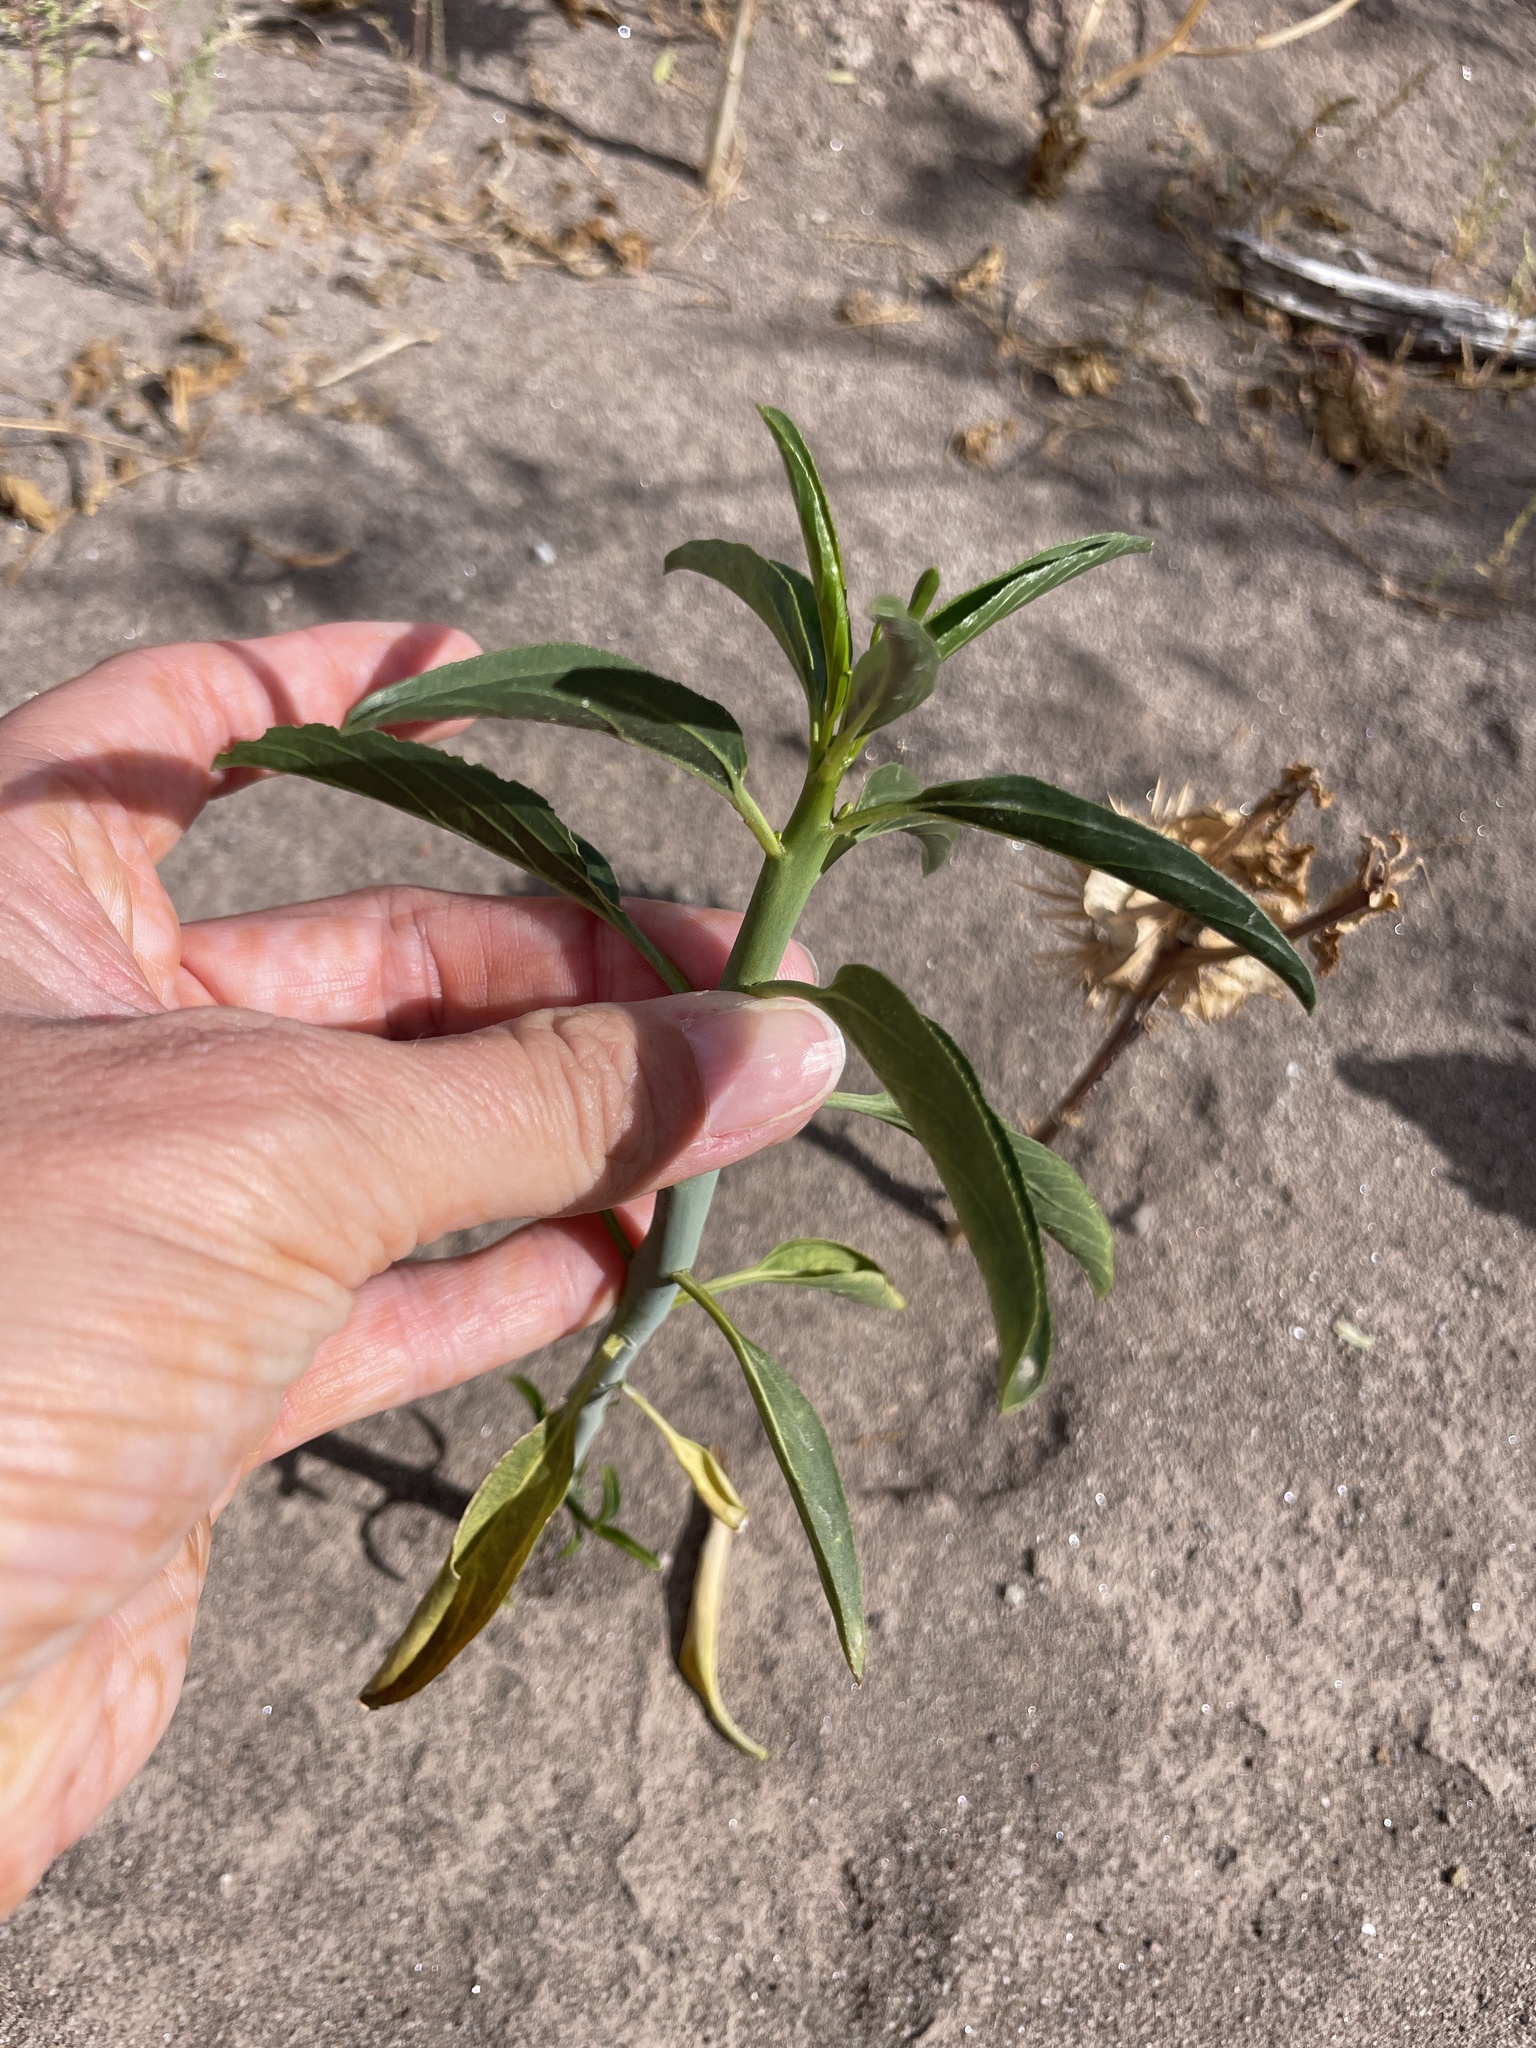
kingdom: Plantae
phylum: Tracheophyta
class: Magnoliopsida
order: Malpighiales
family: Euphorbiaceae
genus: Ditaxis
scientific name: Ditaxis brandegeei
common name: Sonoran silverbush
